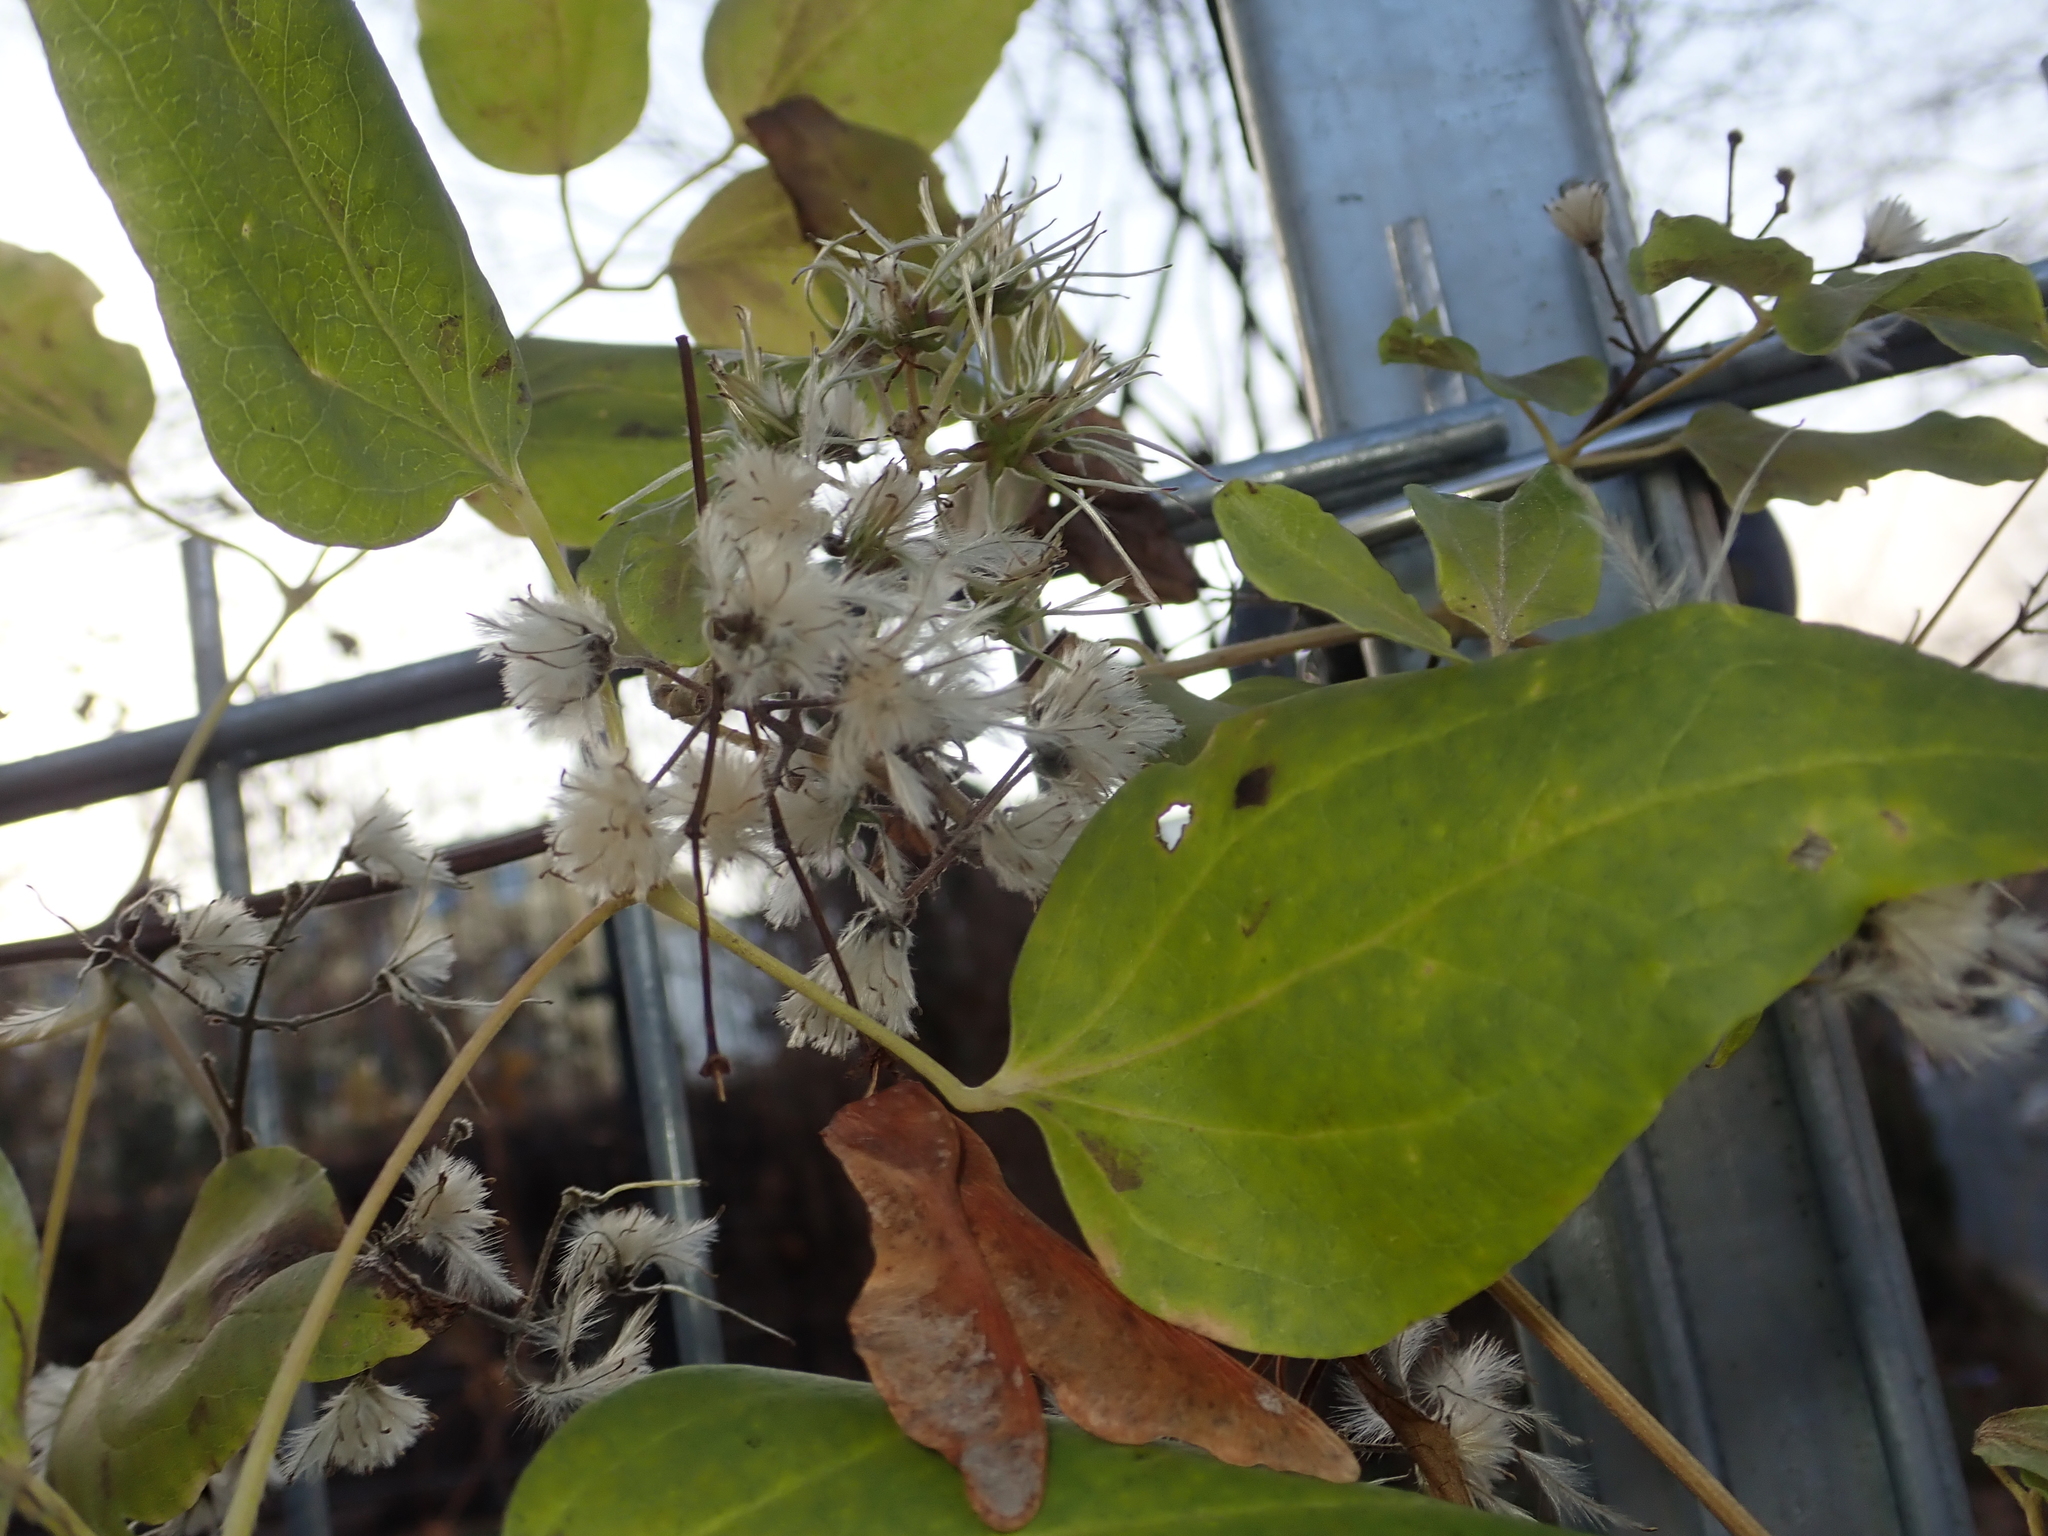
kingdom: Plantae
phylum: Tracheophyta
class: Magnoliopsida
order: Ranunculales
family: Ranunculaceae
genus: Clematis
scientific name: Clematis vitalba
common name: Evergreen clematis
